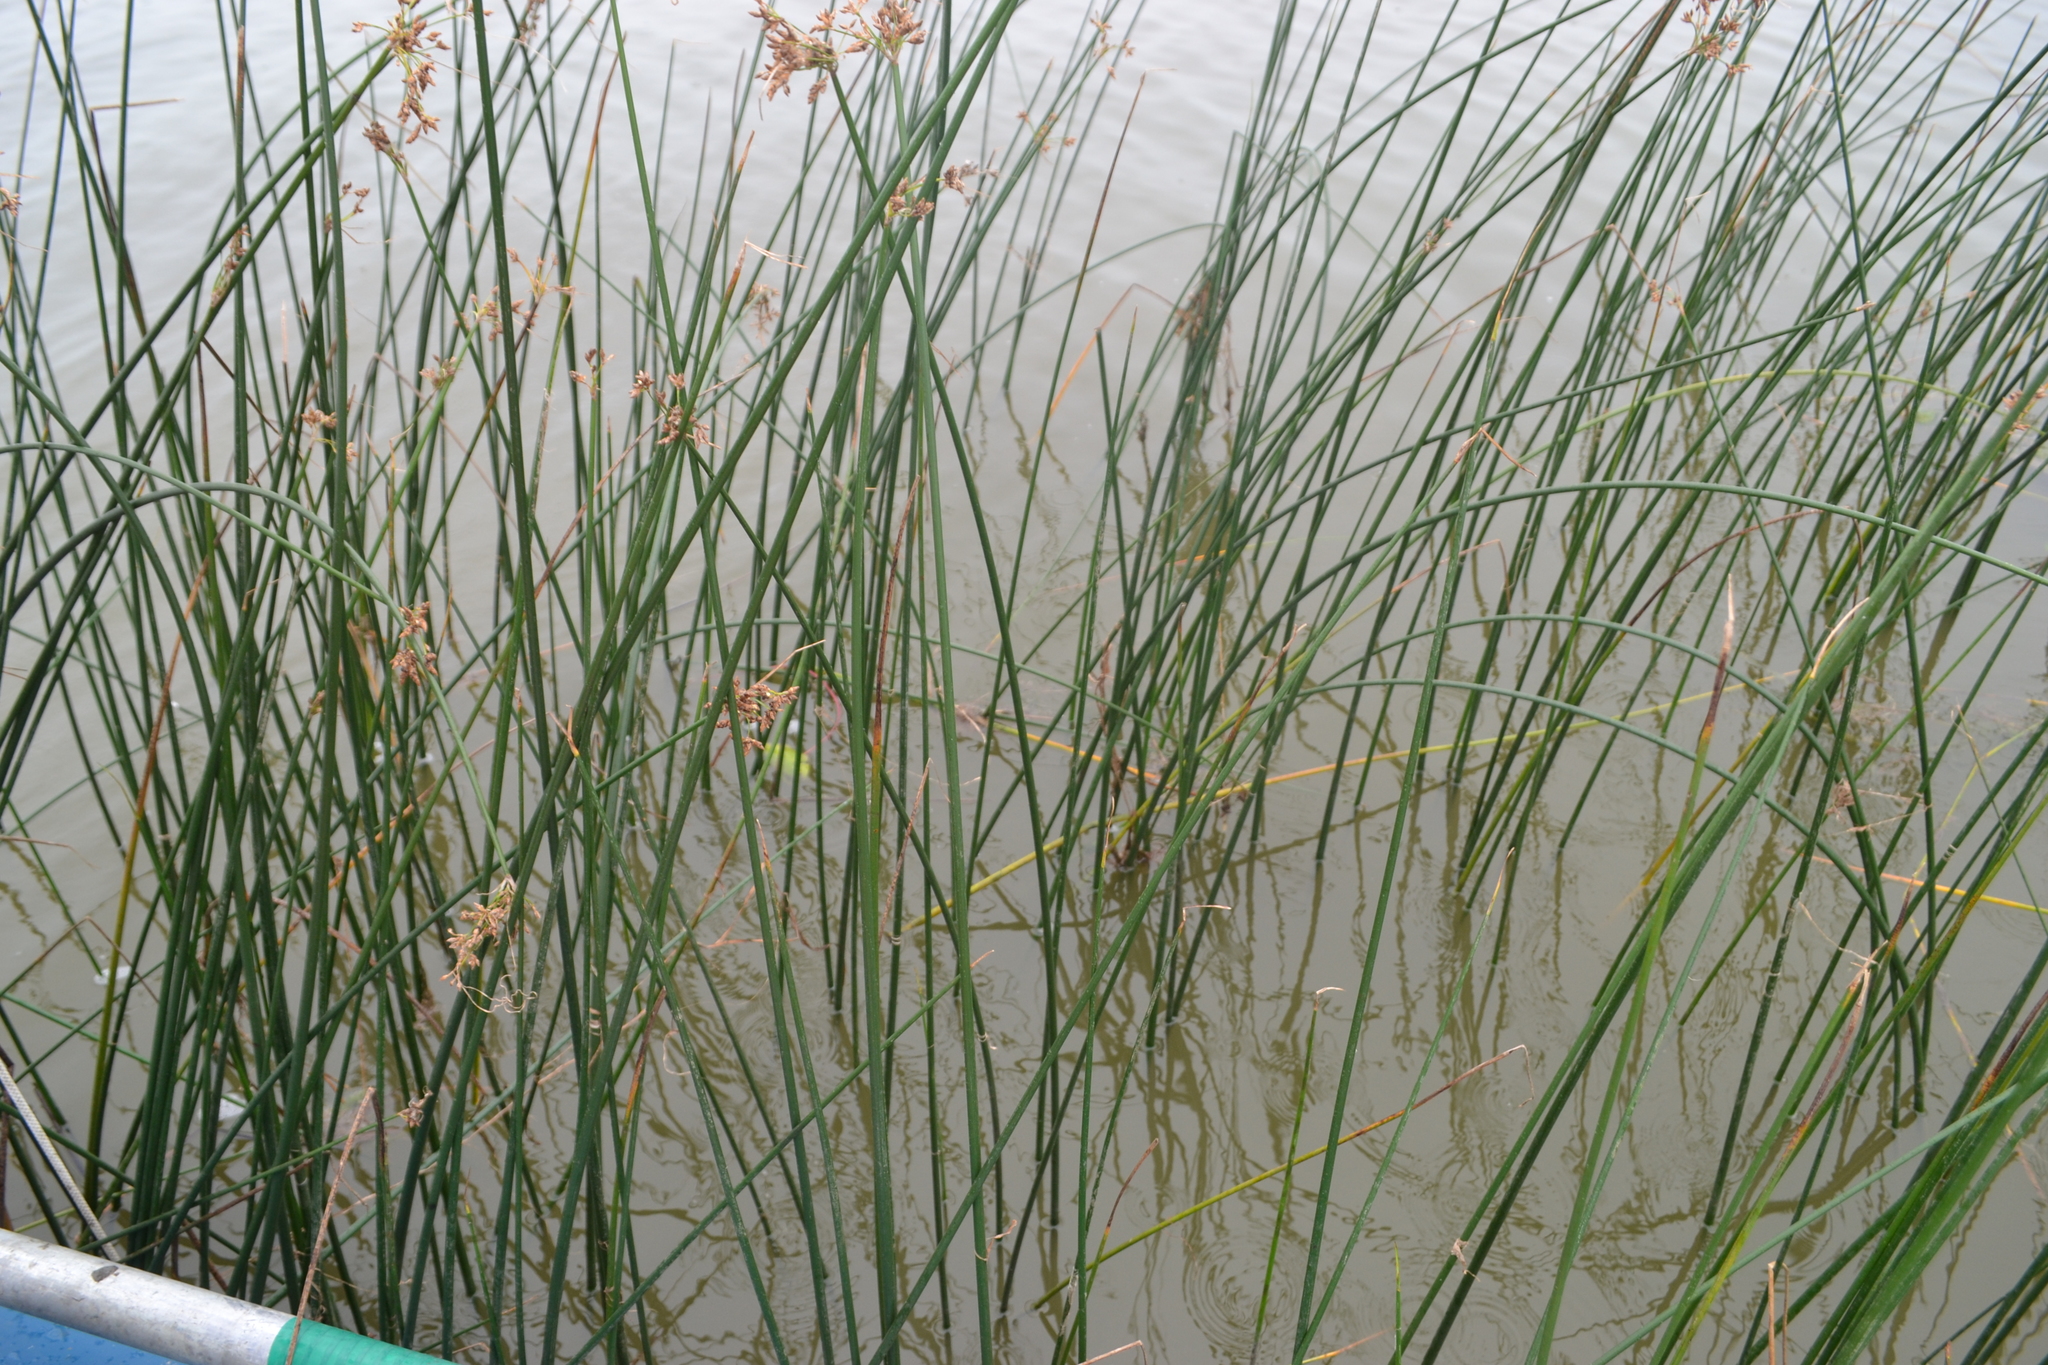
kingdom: Plantae
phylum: Tracheophyta
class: Liliopsida
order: Poales
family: Cyperaceae
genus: Schoenoplectus
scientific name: Schoenoplectus lacustris
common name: Common club-rush
